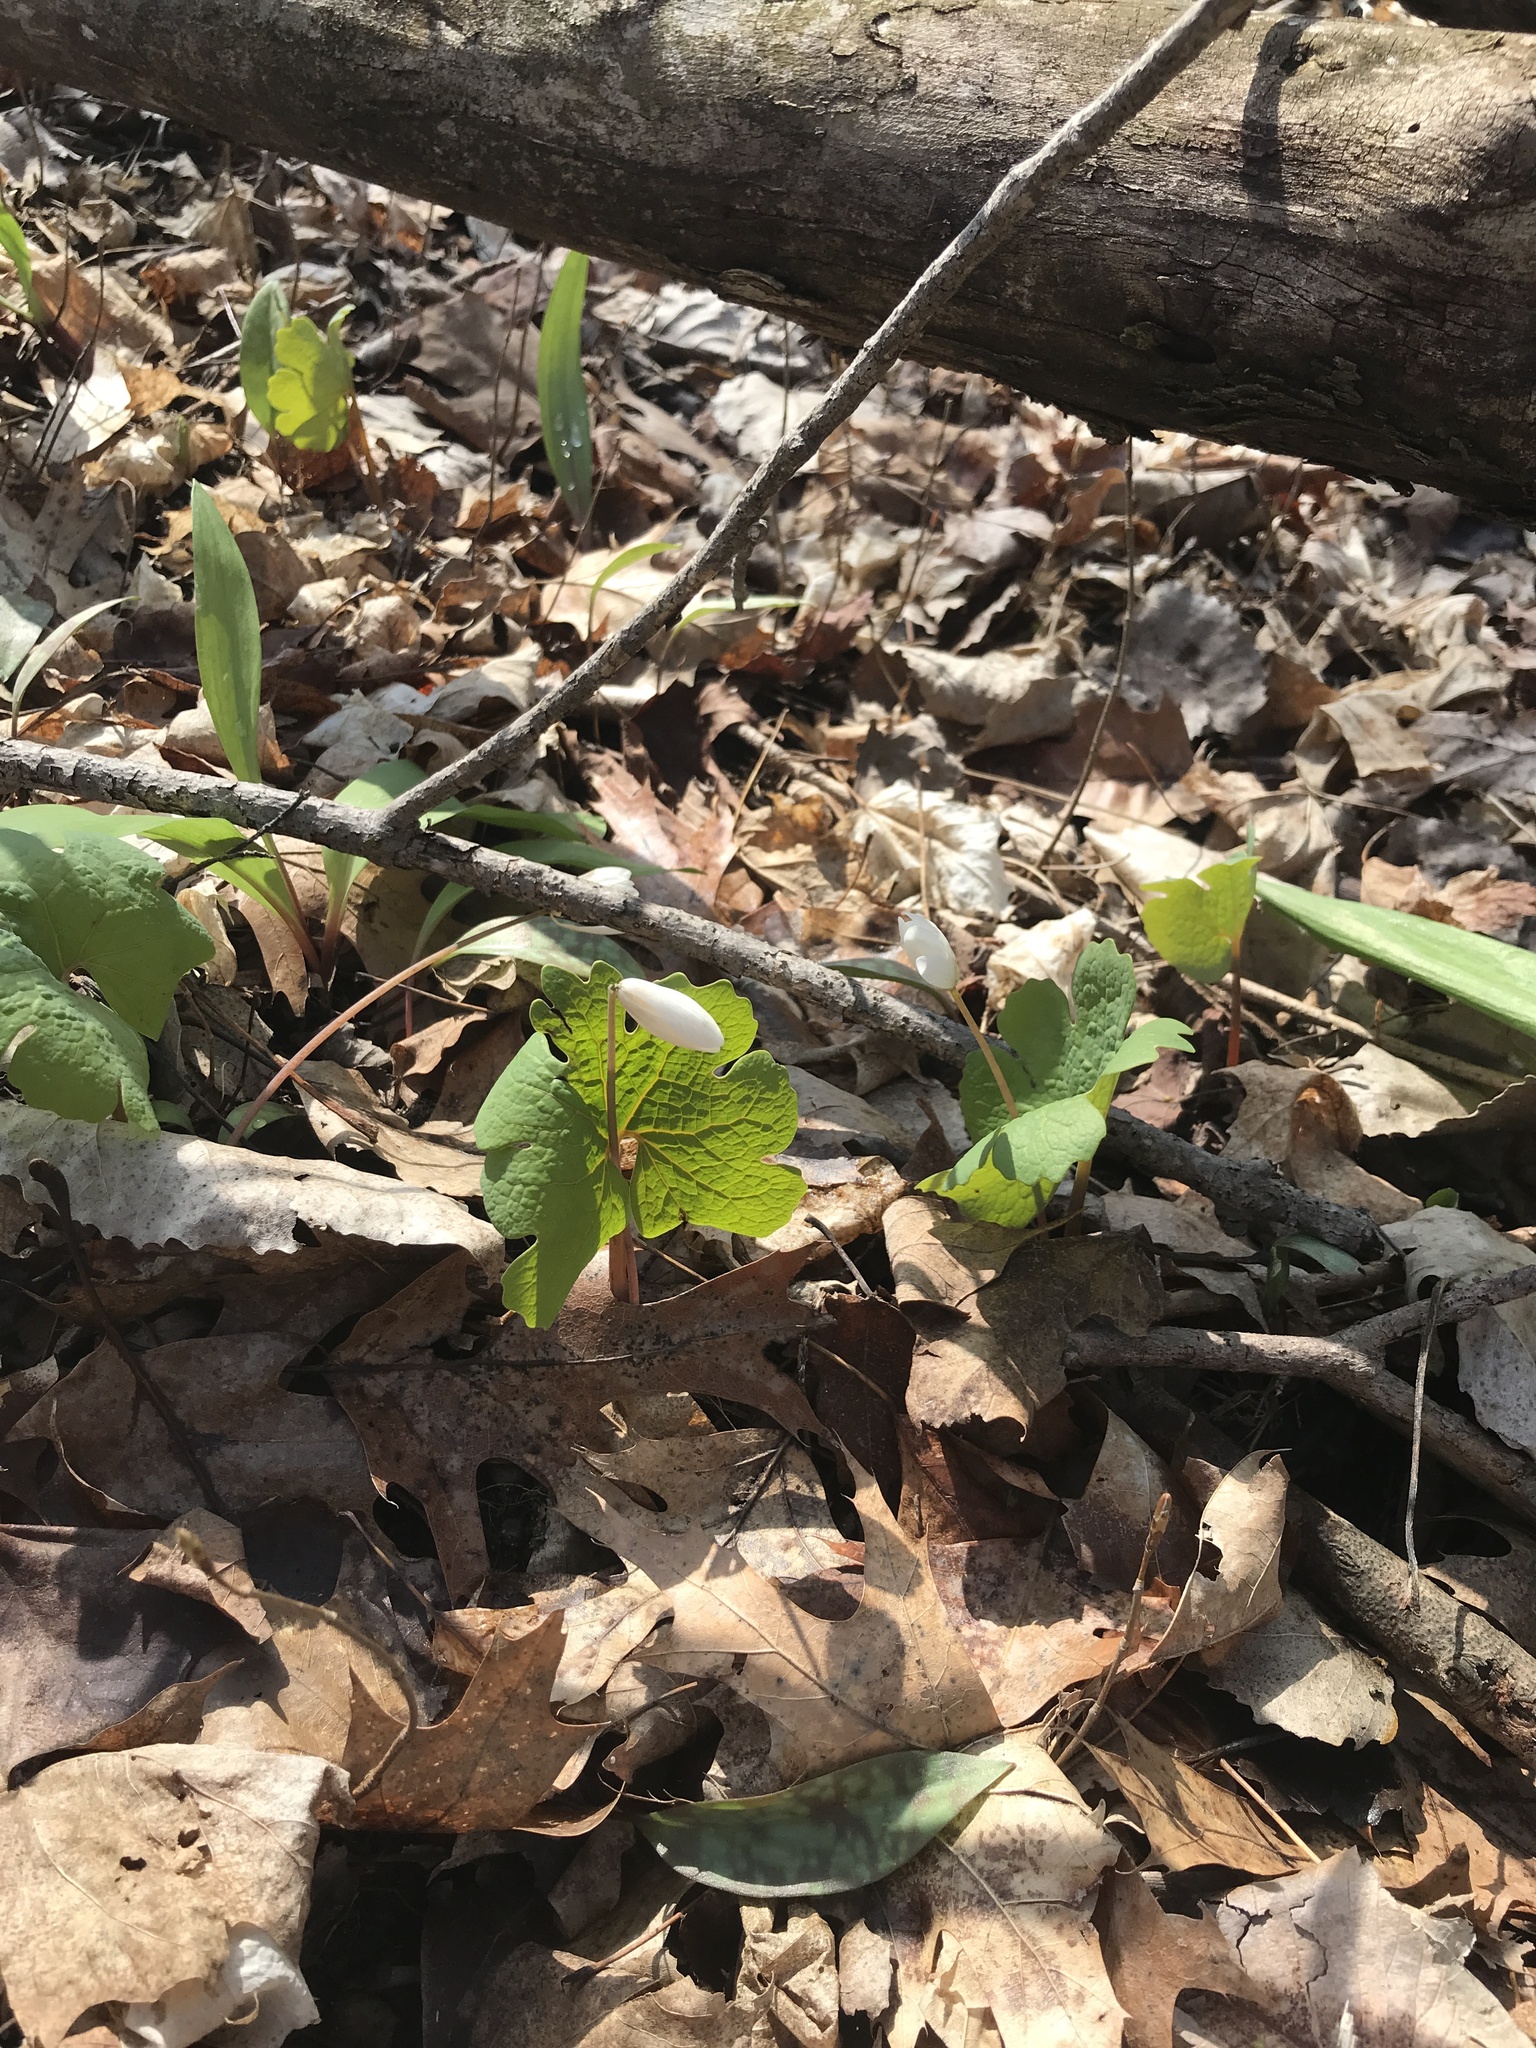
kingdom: Plantae
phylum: Tracheophyta
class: Magnoliopsida
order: Ranunculales
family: Papaveraceae
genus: Sanguinaria
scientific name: Sanguinaria canadensis
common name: Bloodroot
